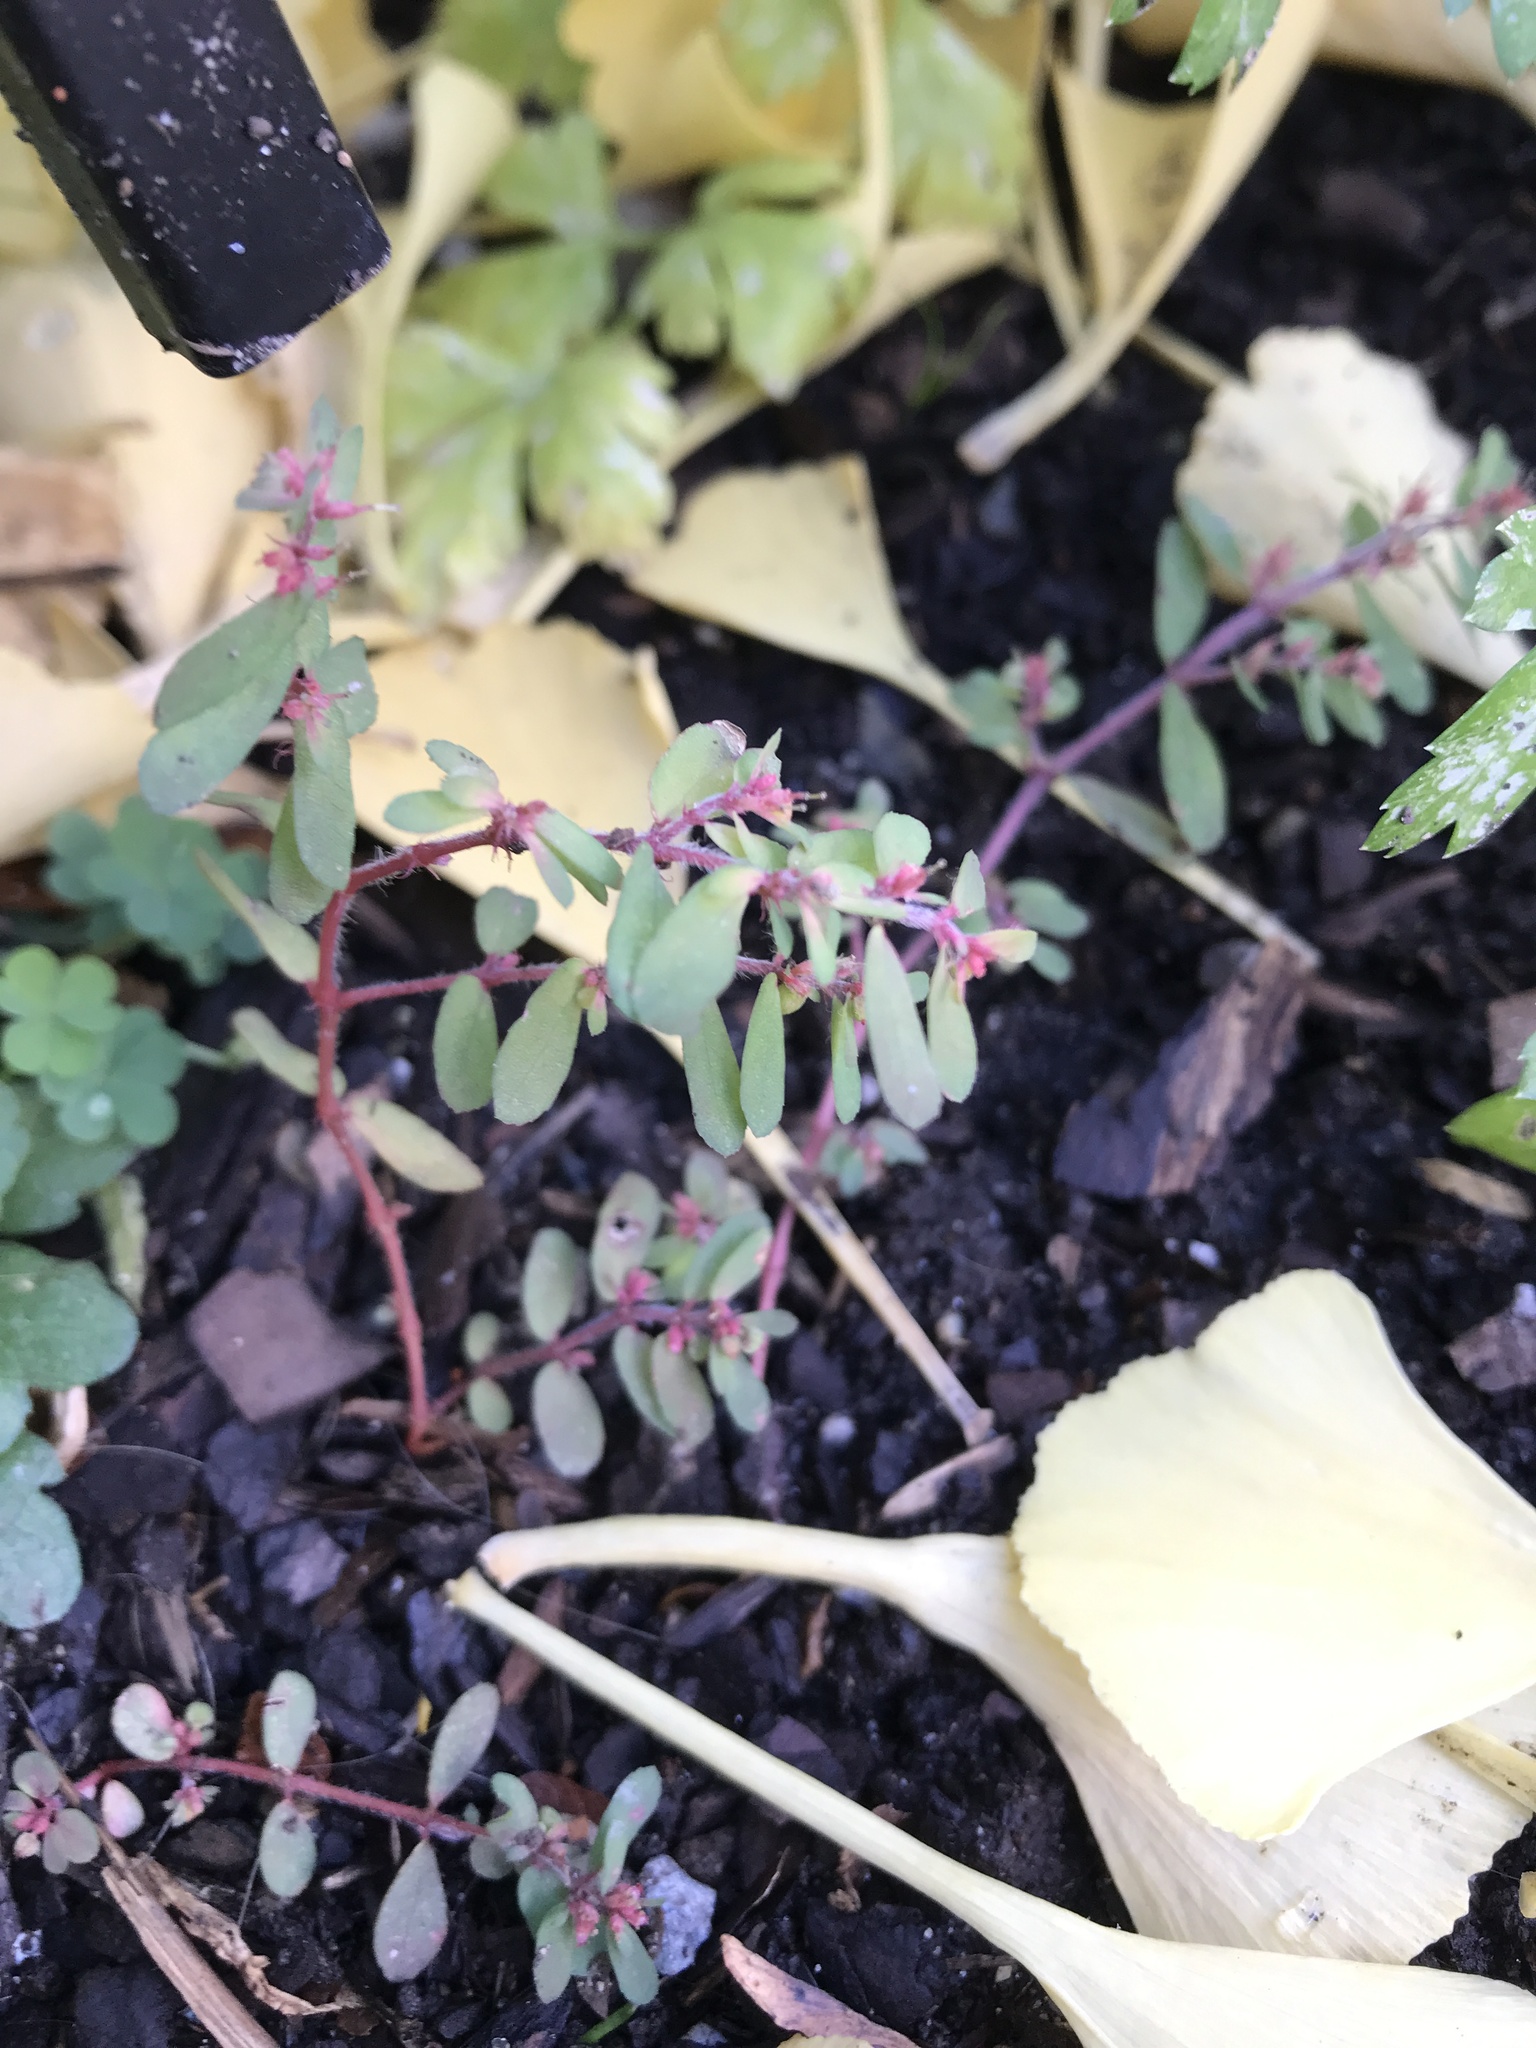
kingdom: Plantae
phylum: Tracheophyta
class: Magnoliopsida
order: Malpighiales
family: Euphorbiaceae
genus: Euphorbia
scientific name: Euphorbia maculata
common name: Spotted spurge
